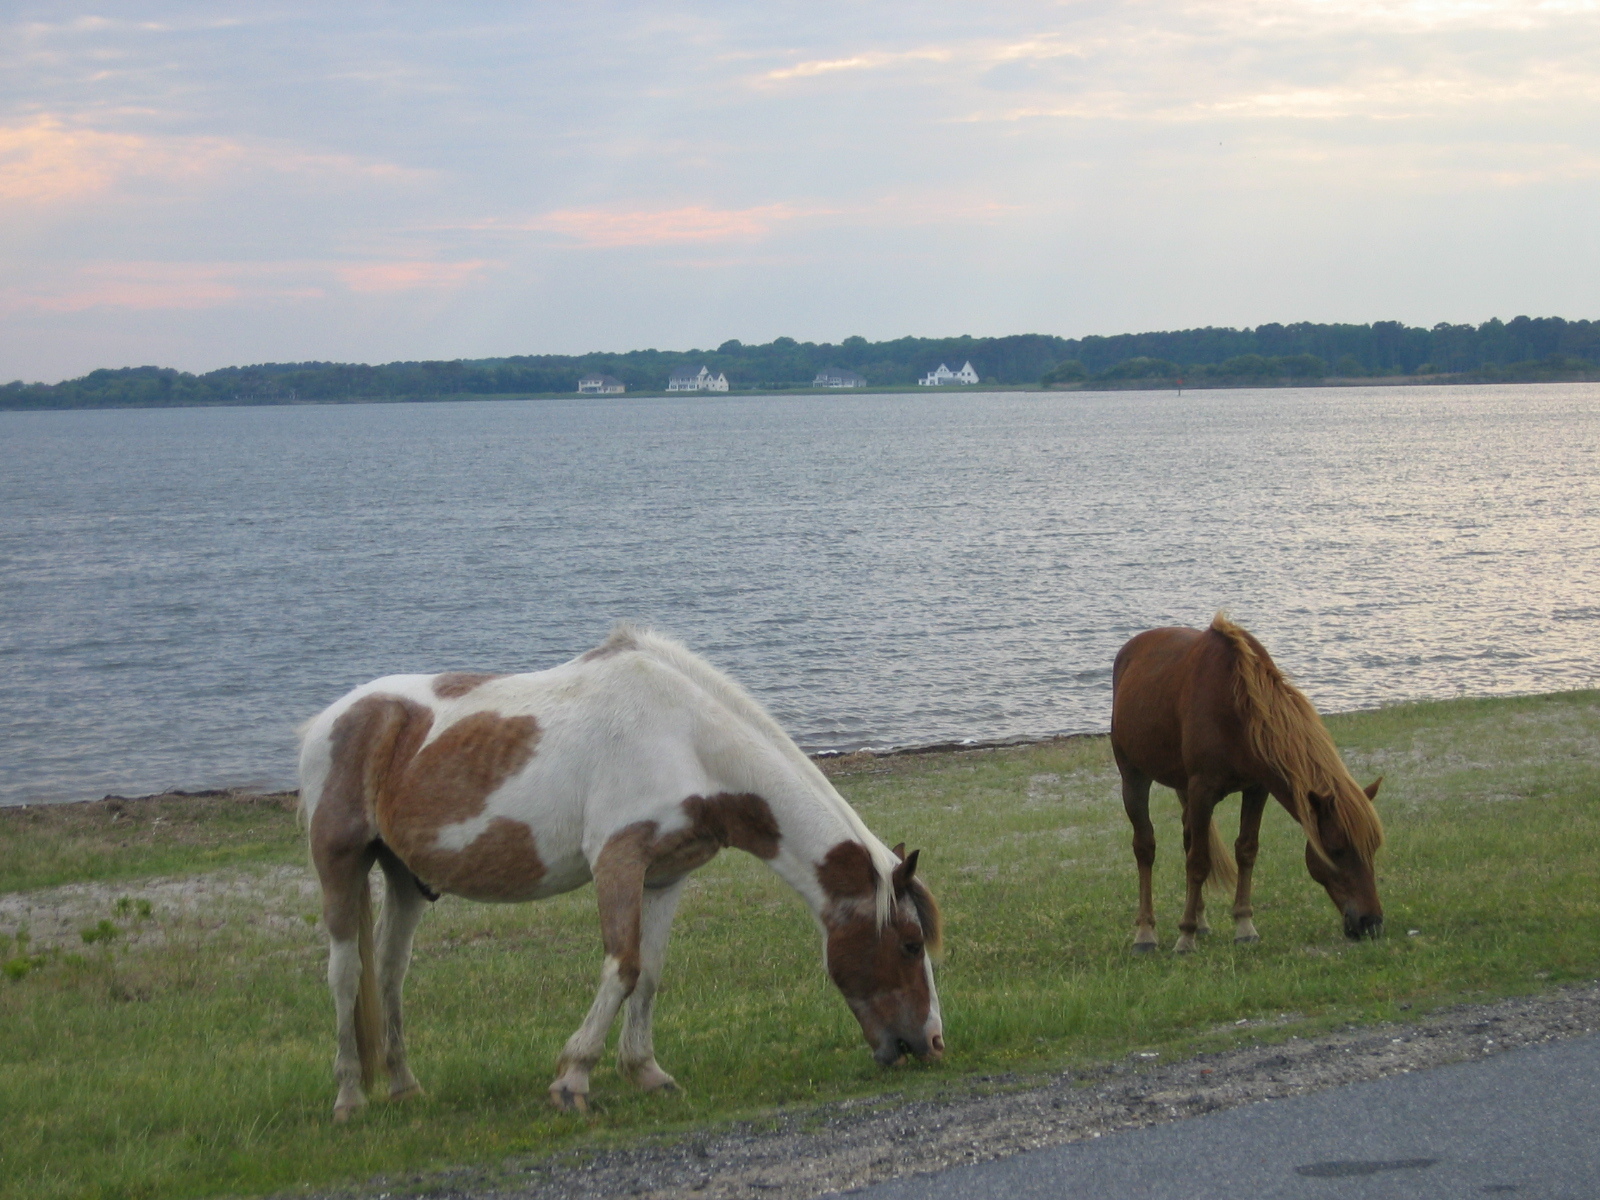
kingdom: Animalia
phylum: Chordata
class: Mammalia
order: Perissodactyla
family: Equidae
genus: Equus
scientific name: Equus caballus
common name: Horse
